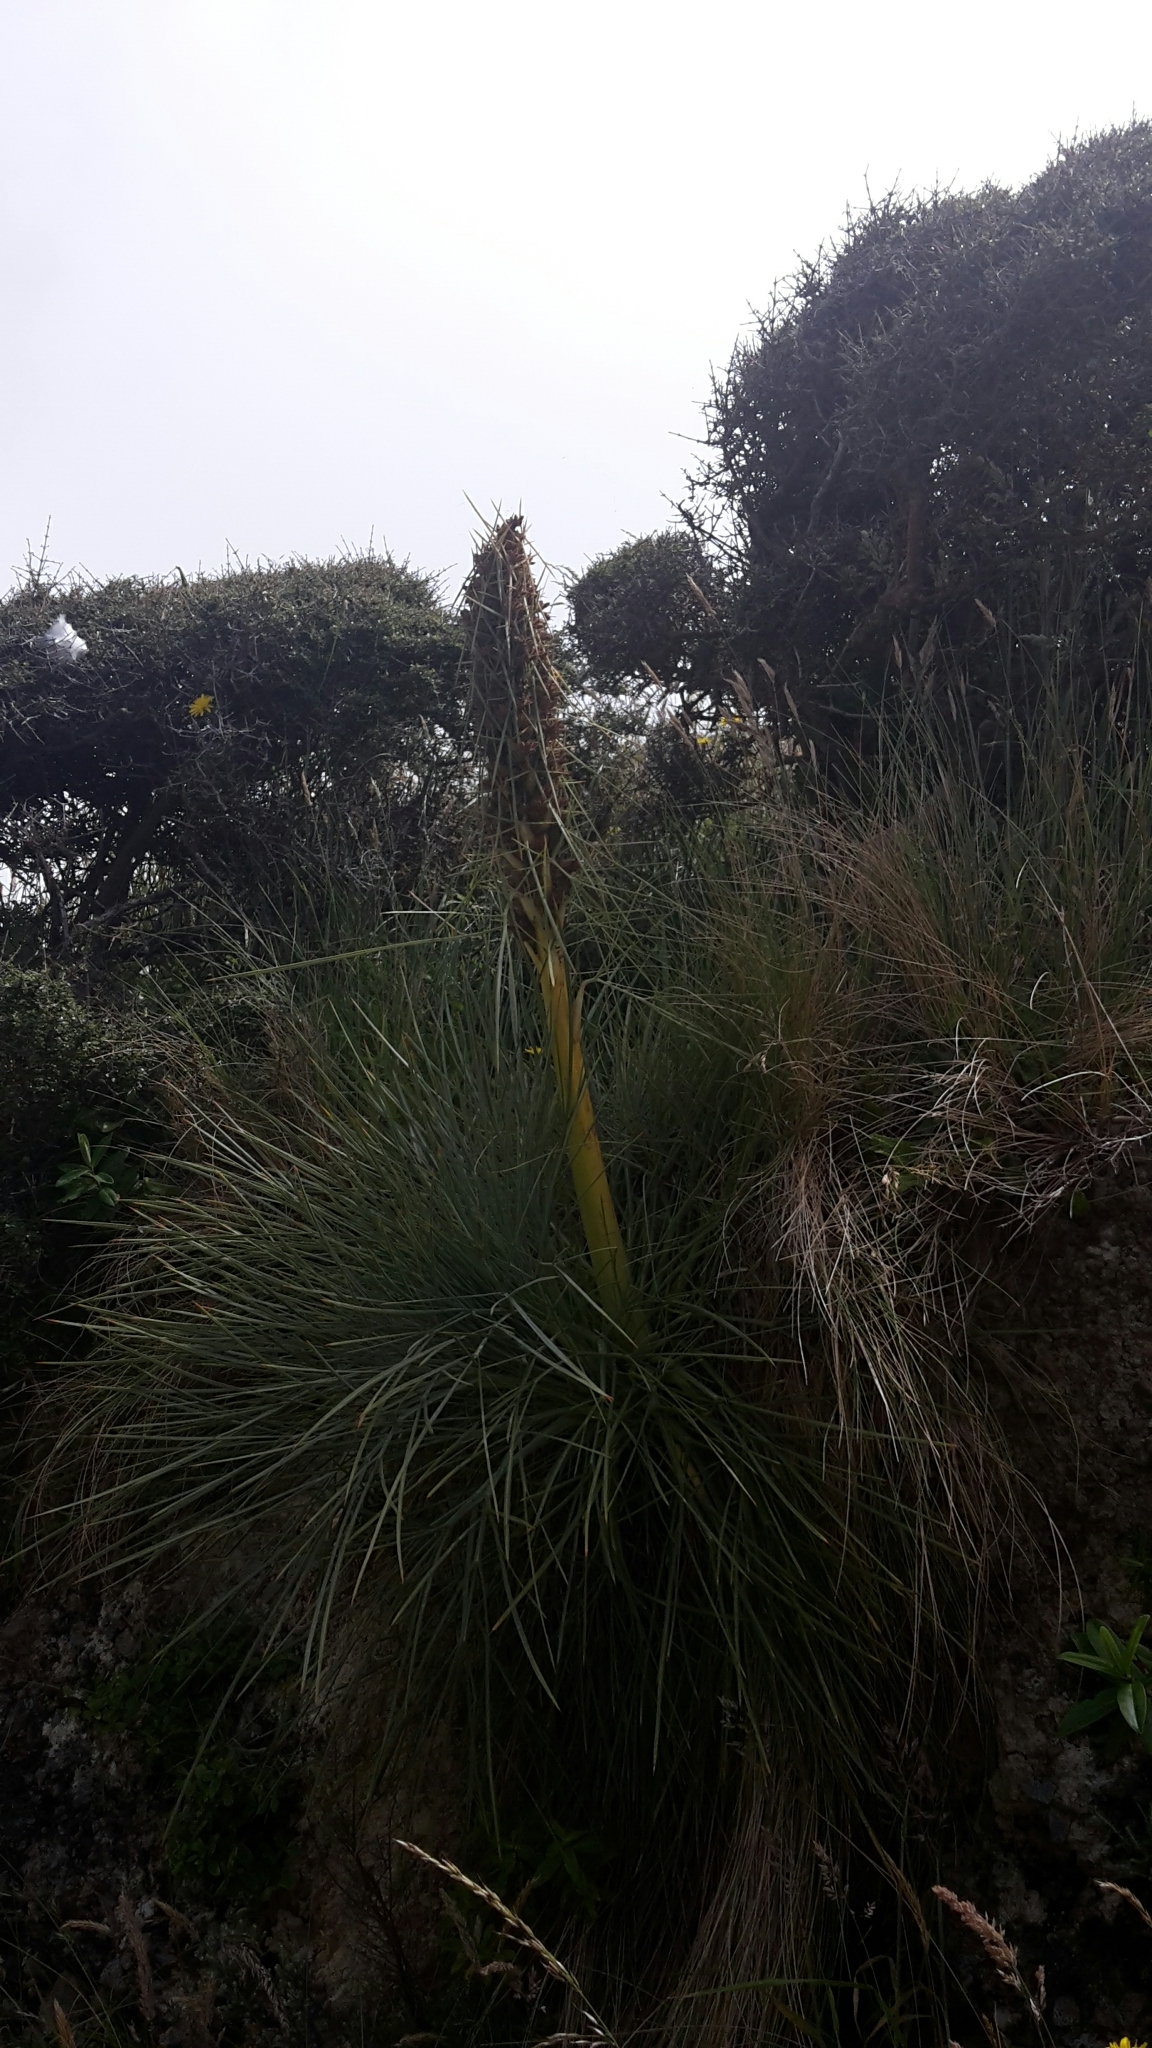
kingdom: Plantae
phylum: Tracheophyta
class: Magnoliopsida
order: Apiales
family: Apiaceae
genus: Aciphylla
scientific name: Aciphylla squarrosa
